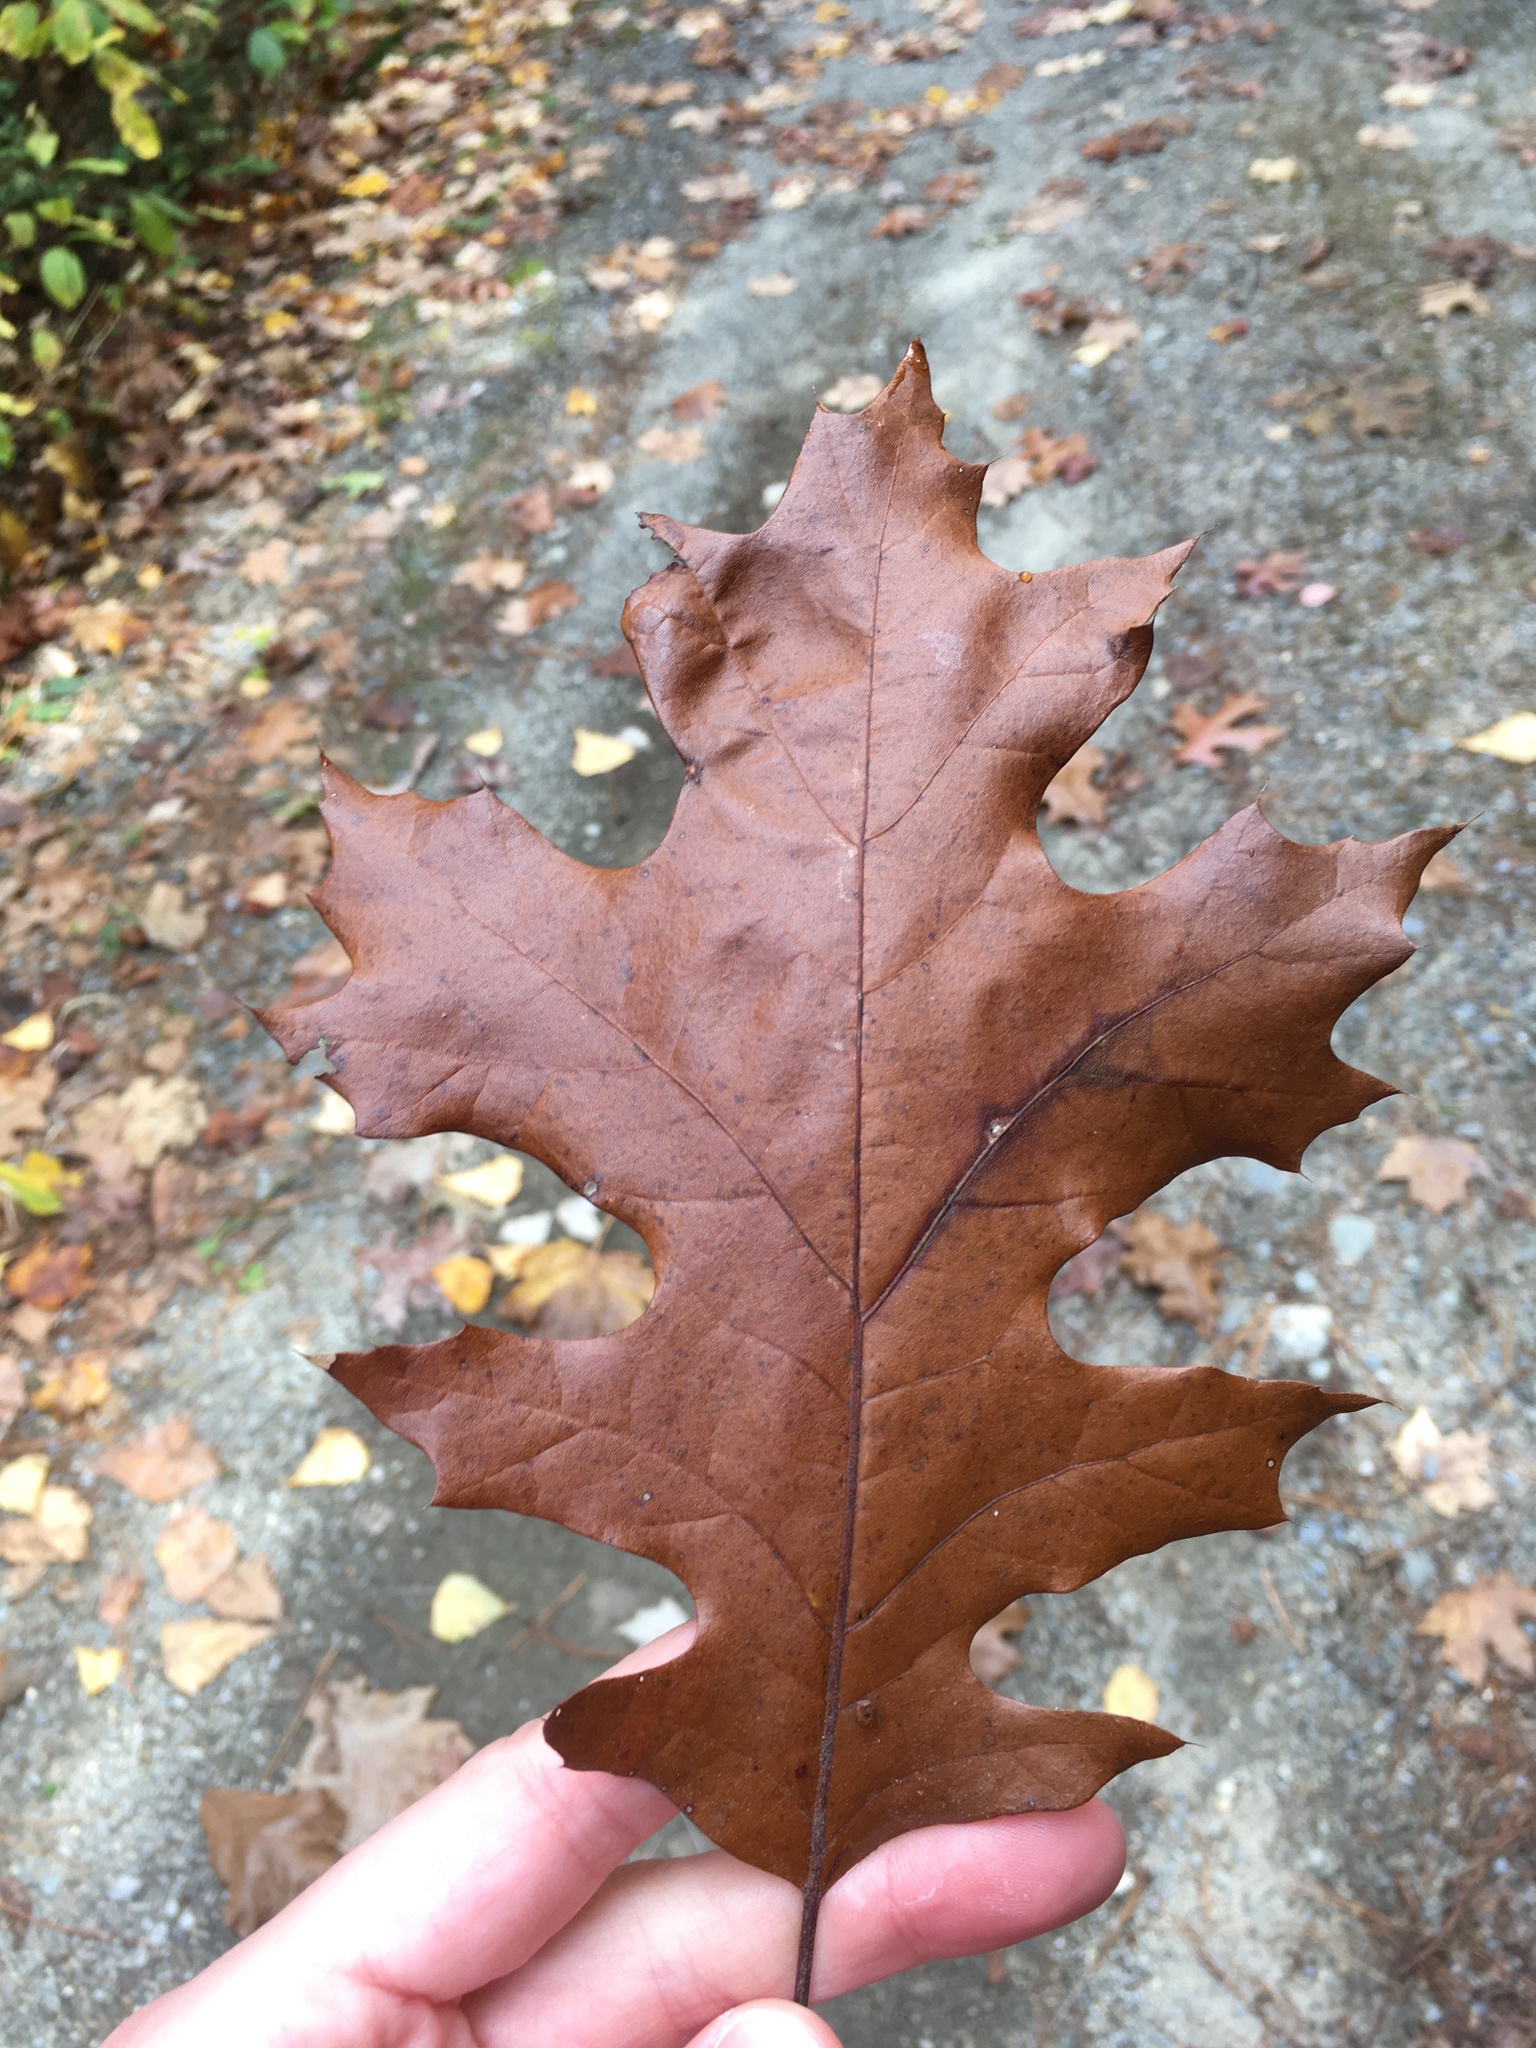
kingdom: Plantae
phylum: Tracheophyta
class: Magnoliopsida
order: Fagales
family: Fagaceae
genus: Quercus
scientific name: Quercus rubra
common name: Red oak
